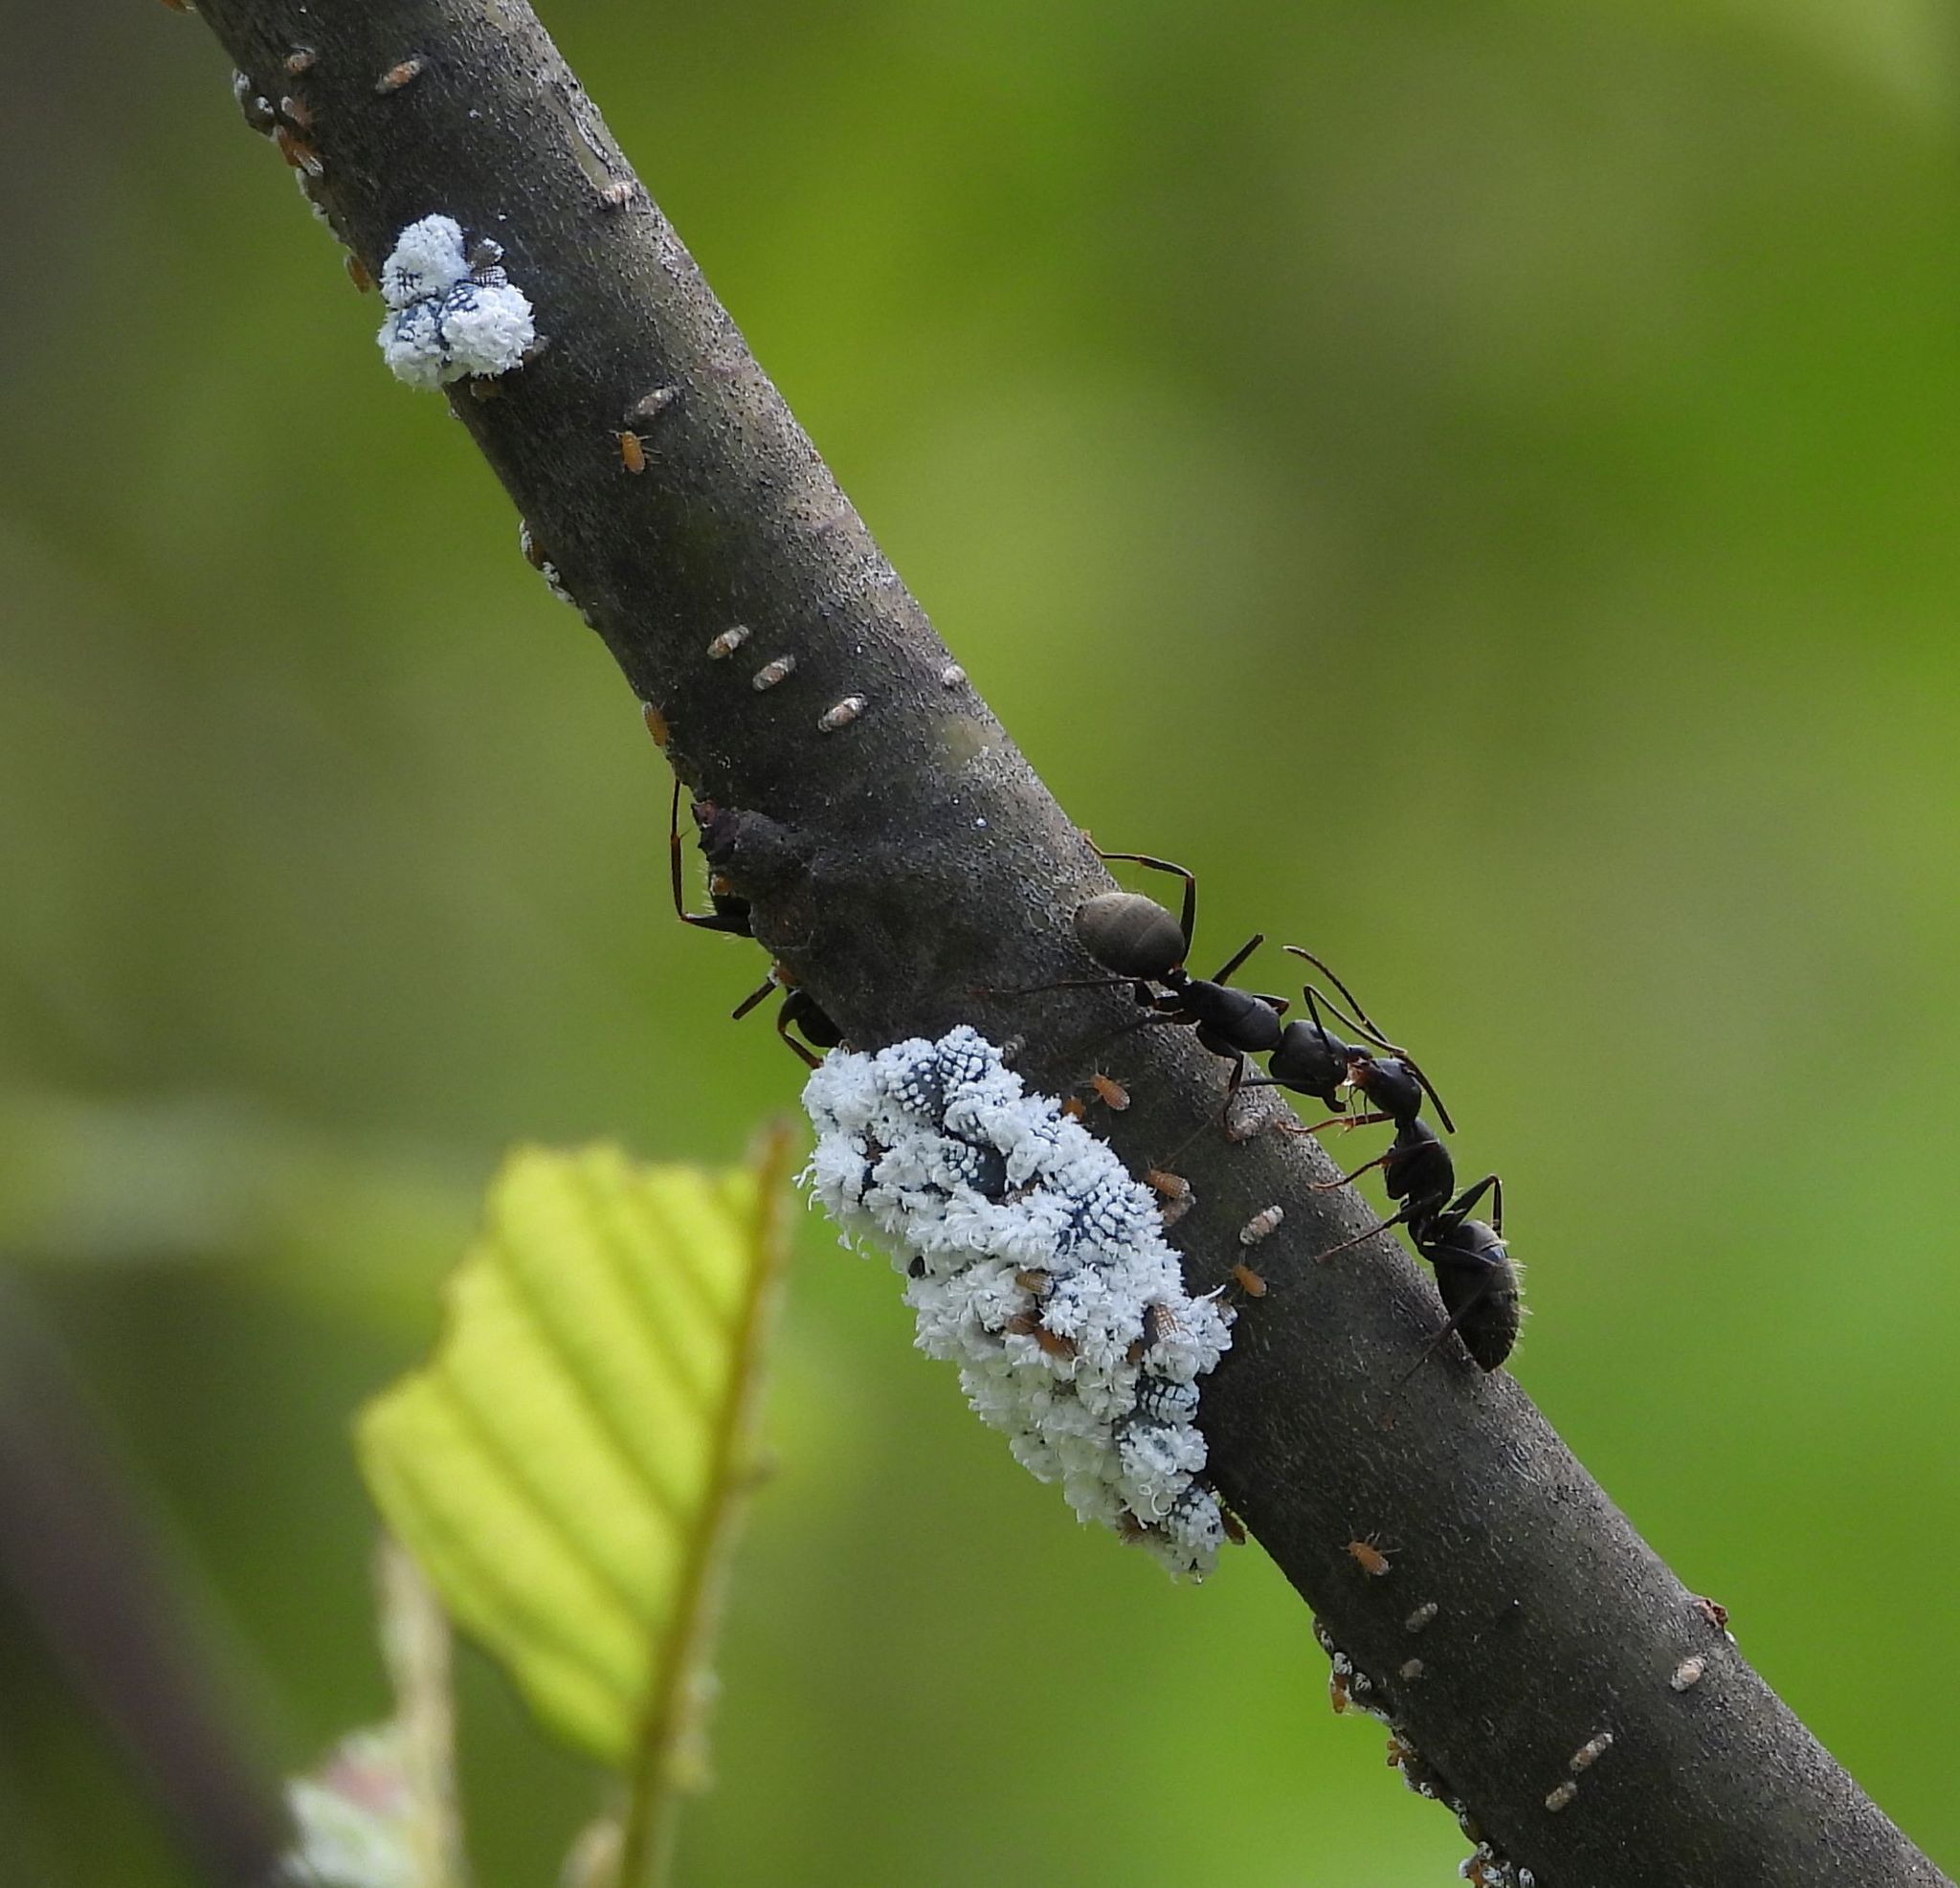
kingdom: Animalia
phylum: Arthropoda
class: Insecta
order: Hemiptera
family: Aphididae
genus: Prociphilus
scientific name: Prociphilus tessellatus
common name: Woolly alder aphid
